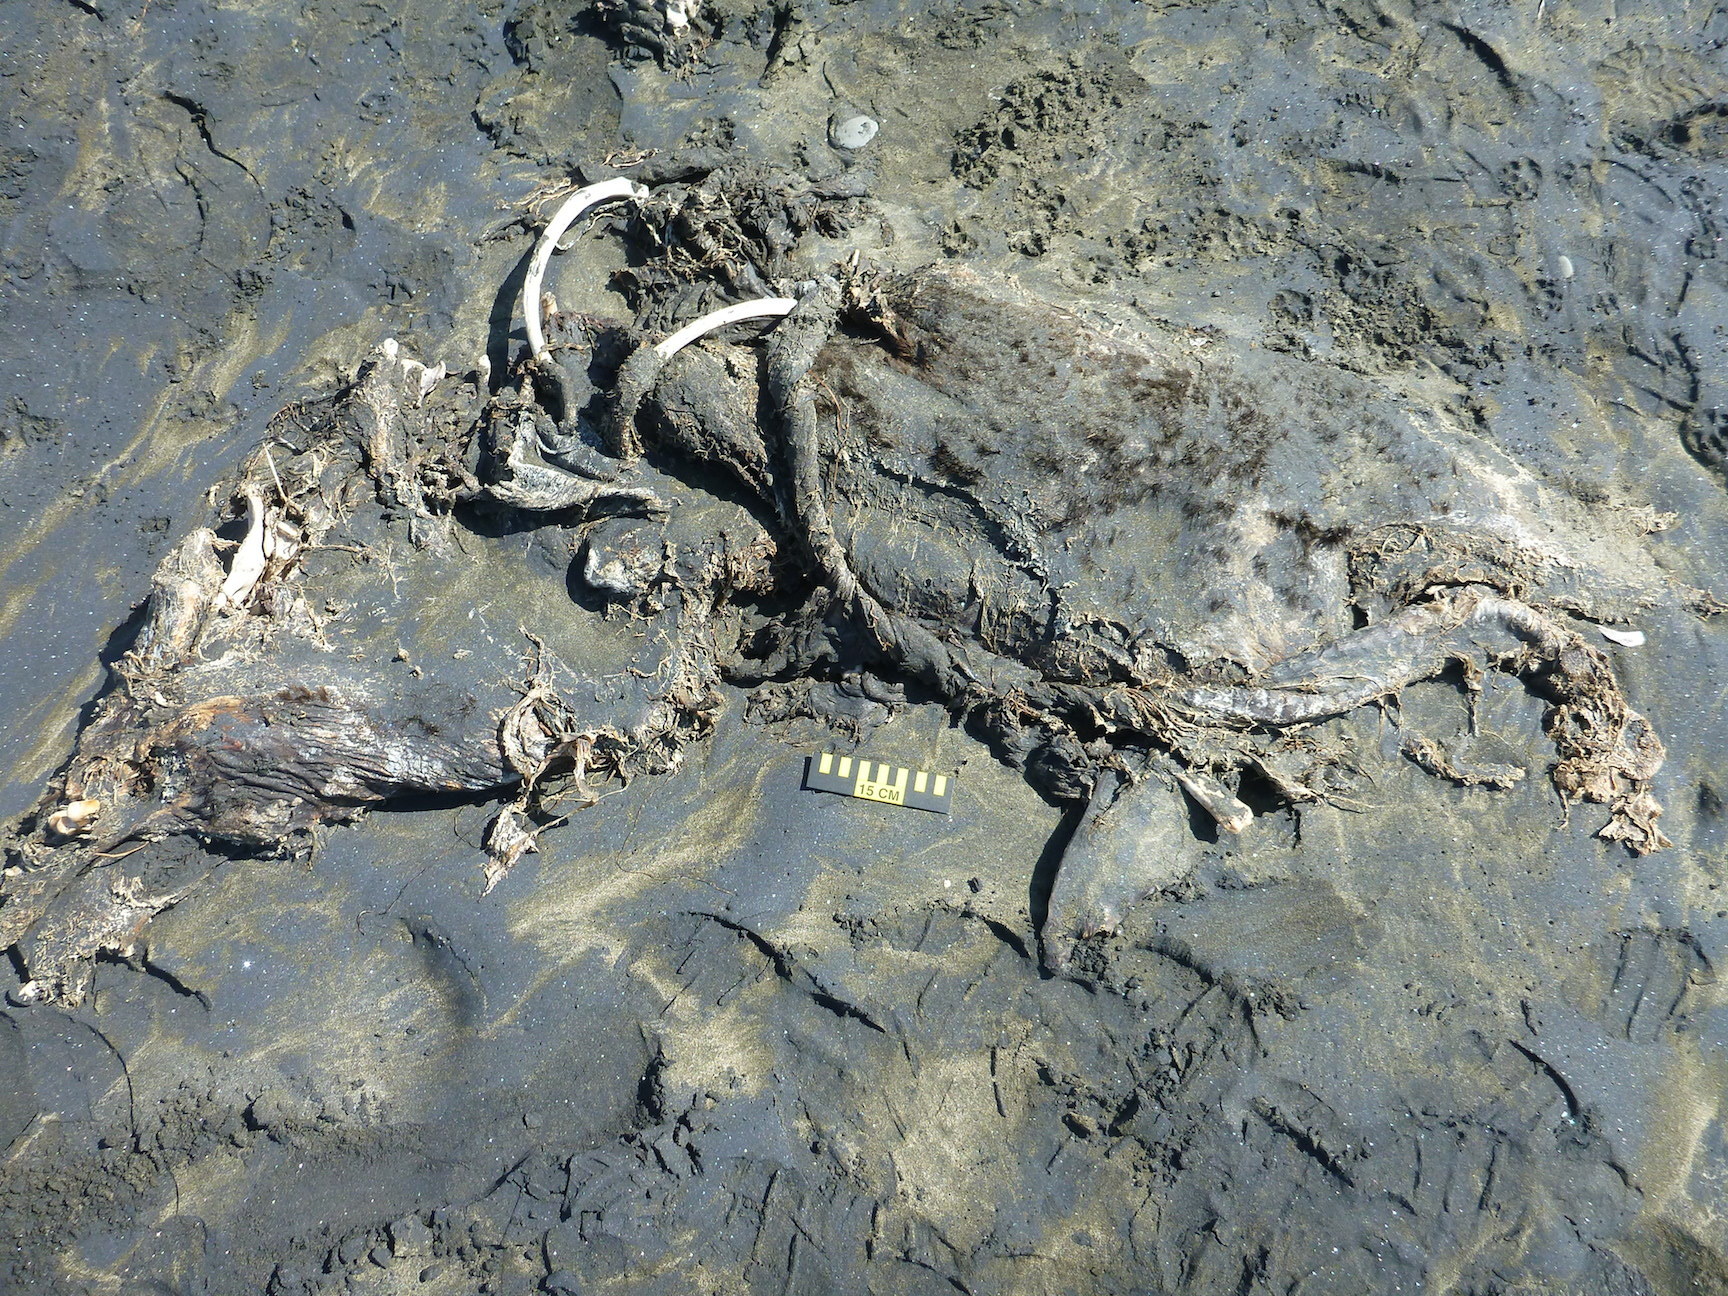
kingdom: Animalia
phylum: Chordata
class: Mammalia
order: Carnivora
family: Otariidae
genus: Zalophus
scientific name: Zalophus californianus
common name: California sea lion
